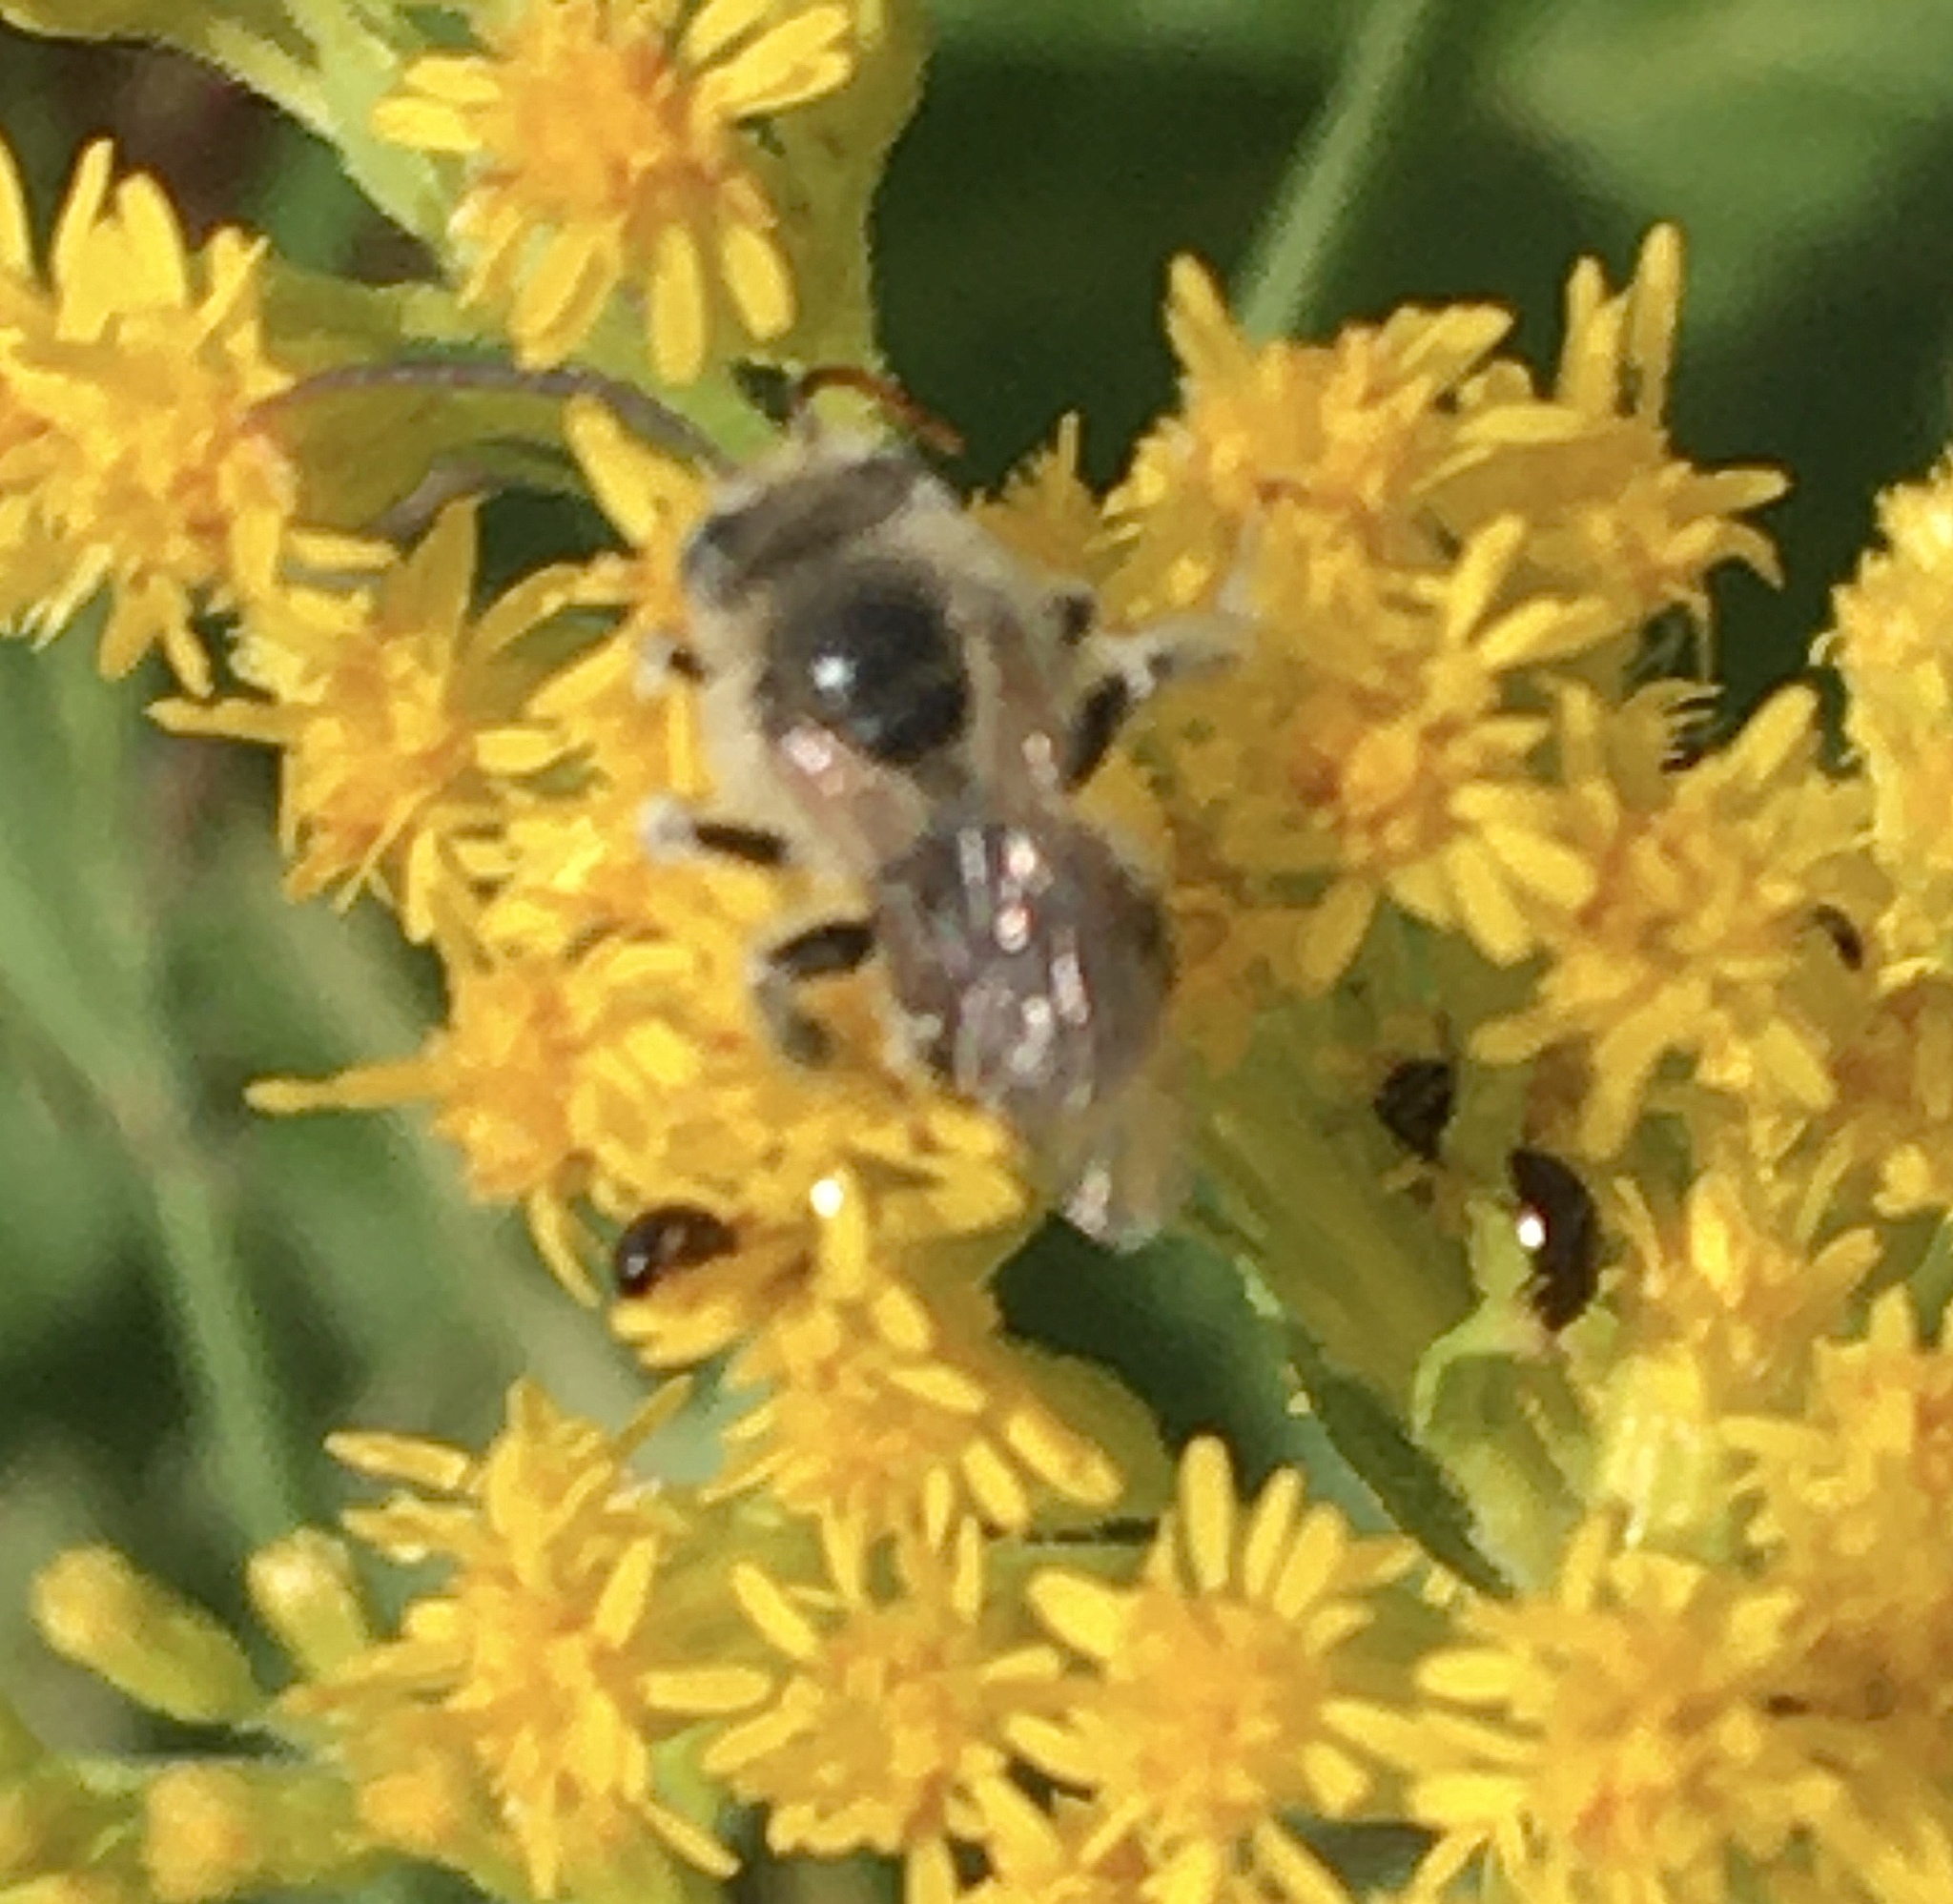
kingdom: Animalia
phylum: Arthropoda
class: Insecta
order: Hymenoptera
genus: Eumelissodes
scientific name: Eumelissodes
